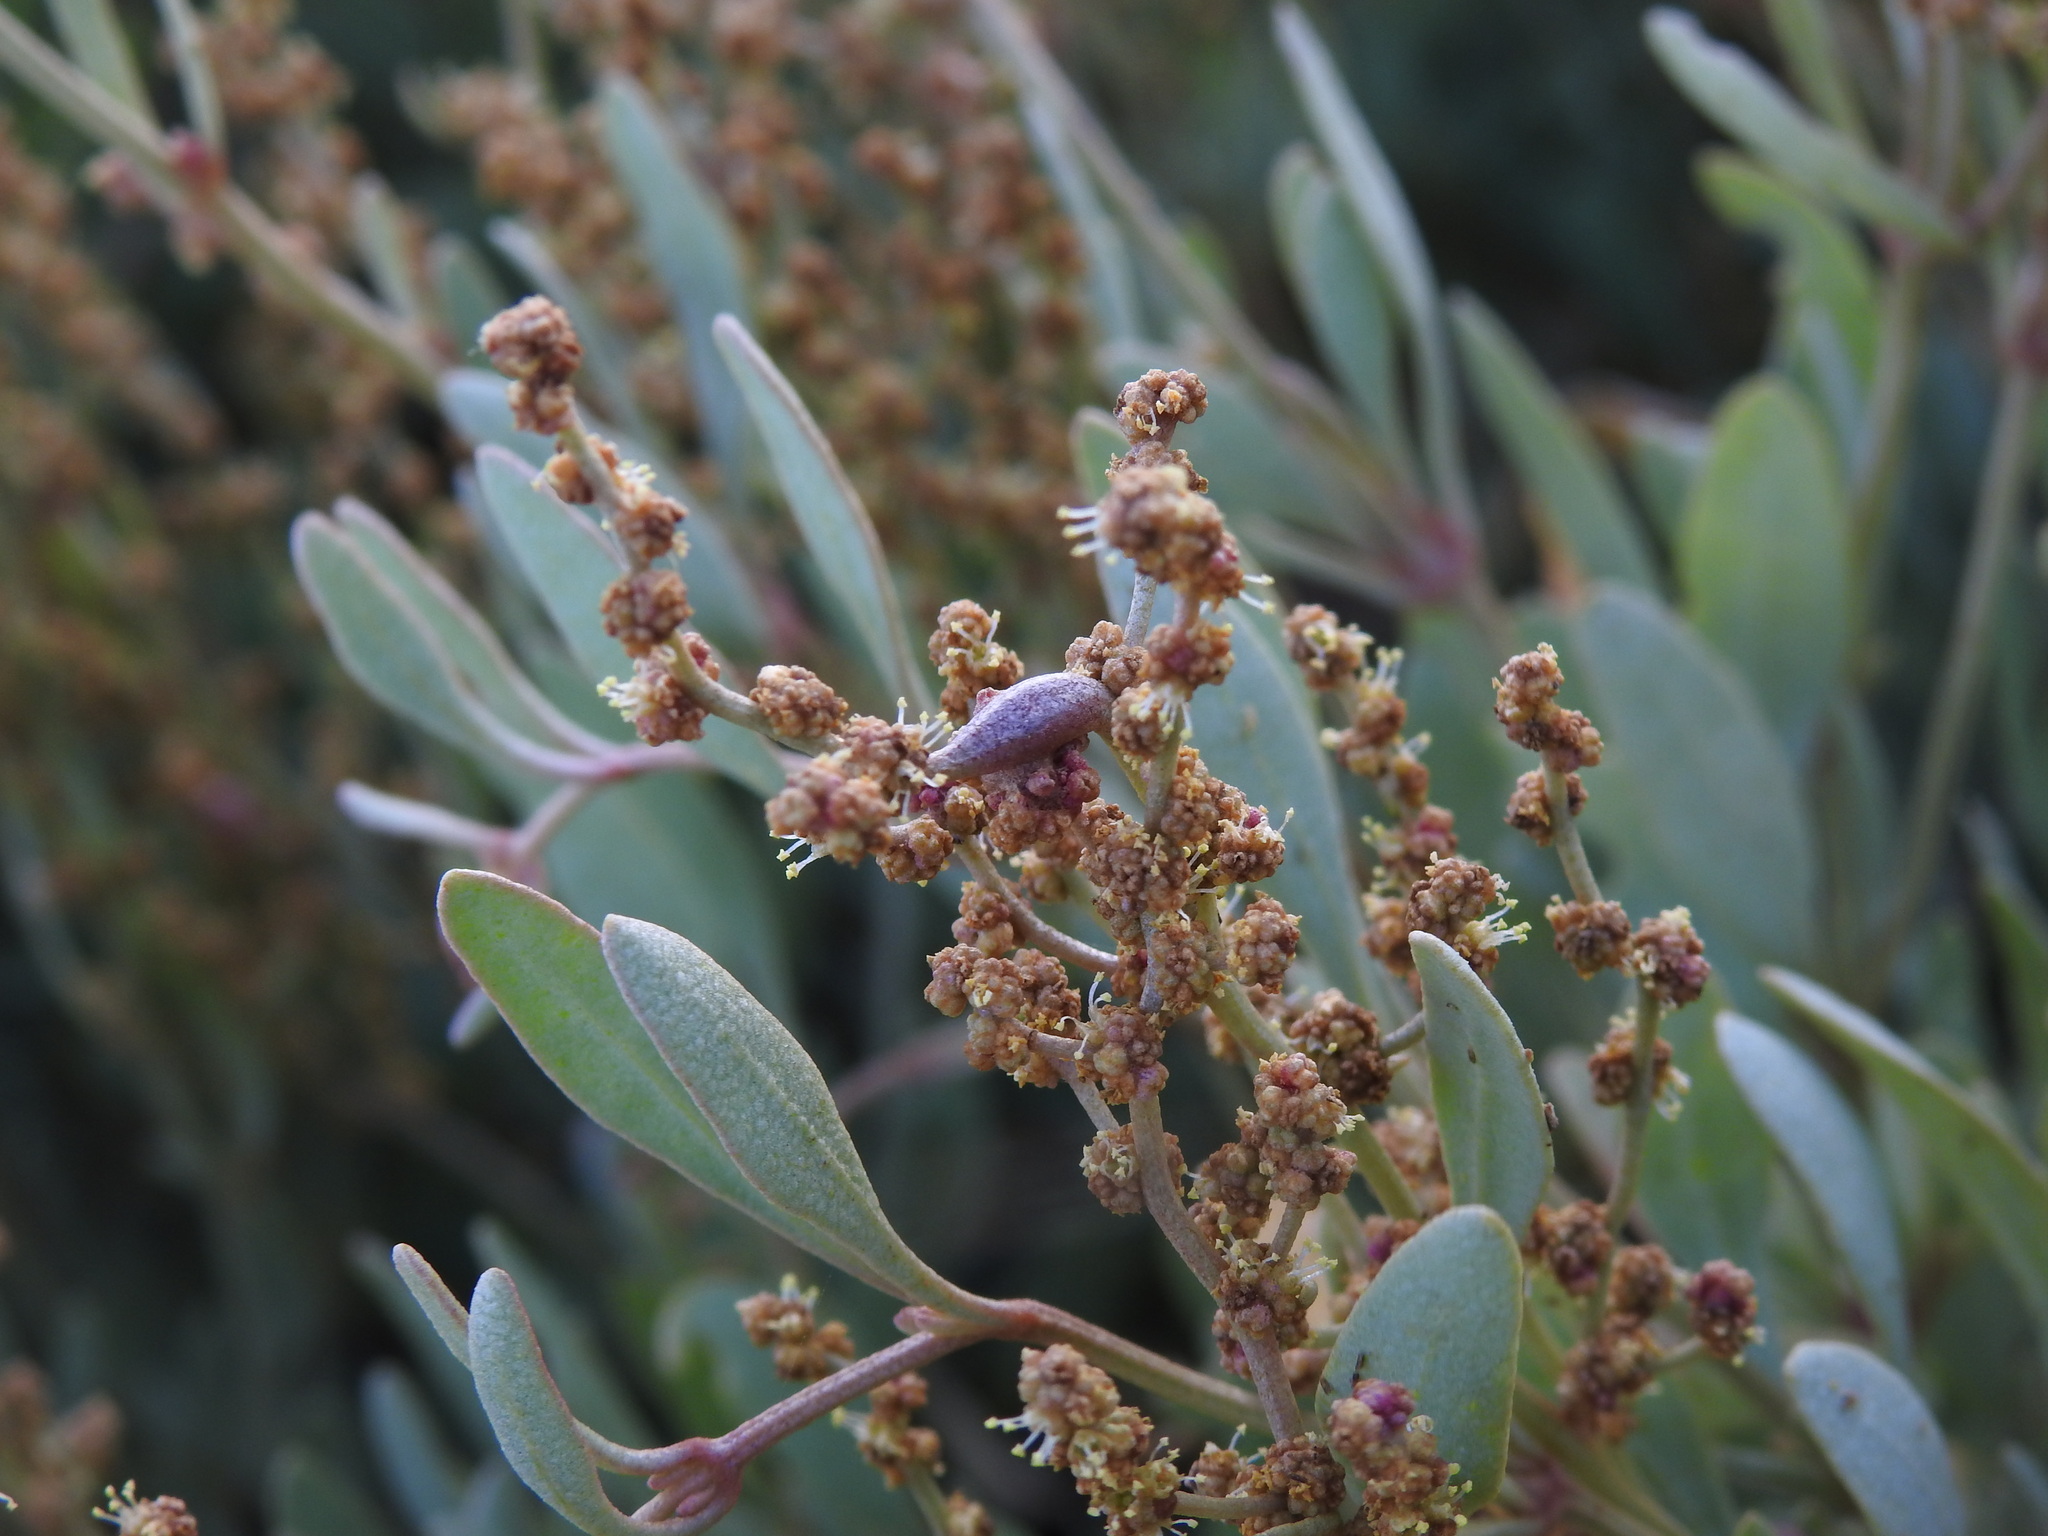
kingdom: Animalia
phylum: Arthropoda
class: Arachnida
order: Trombidiformes
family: Eriophyidae
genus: Eriophyes
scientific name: Eriophyes obiones
